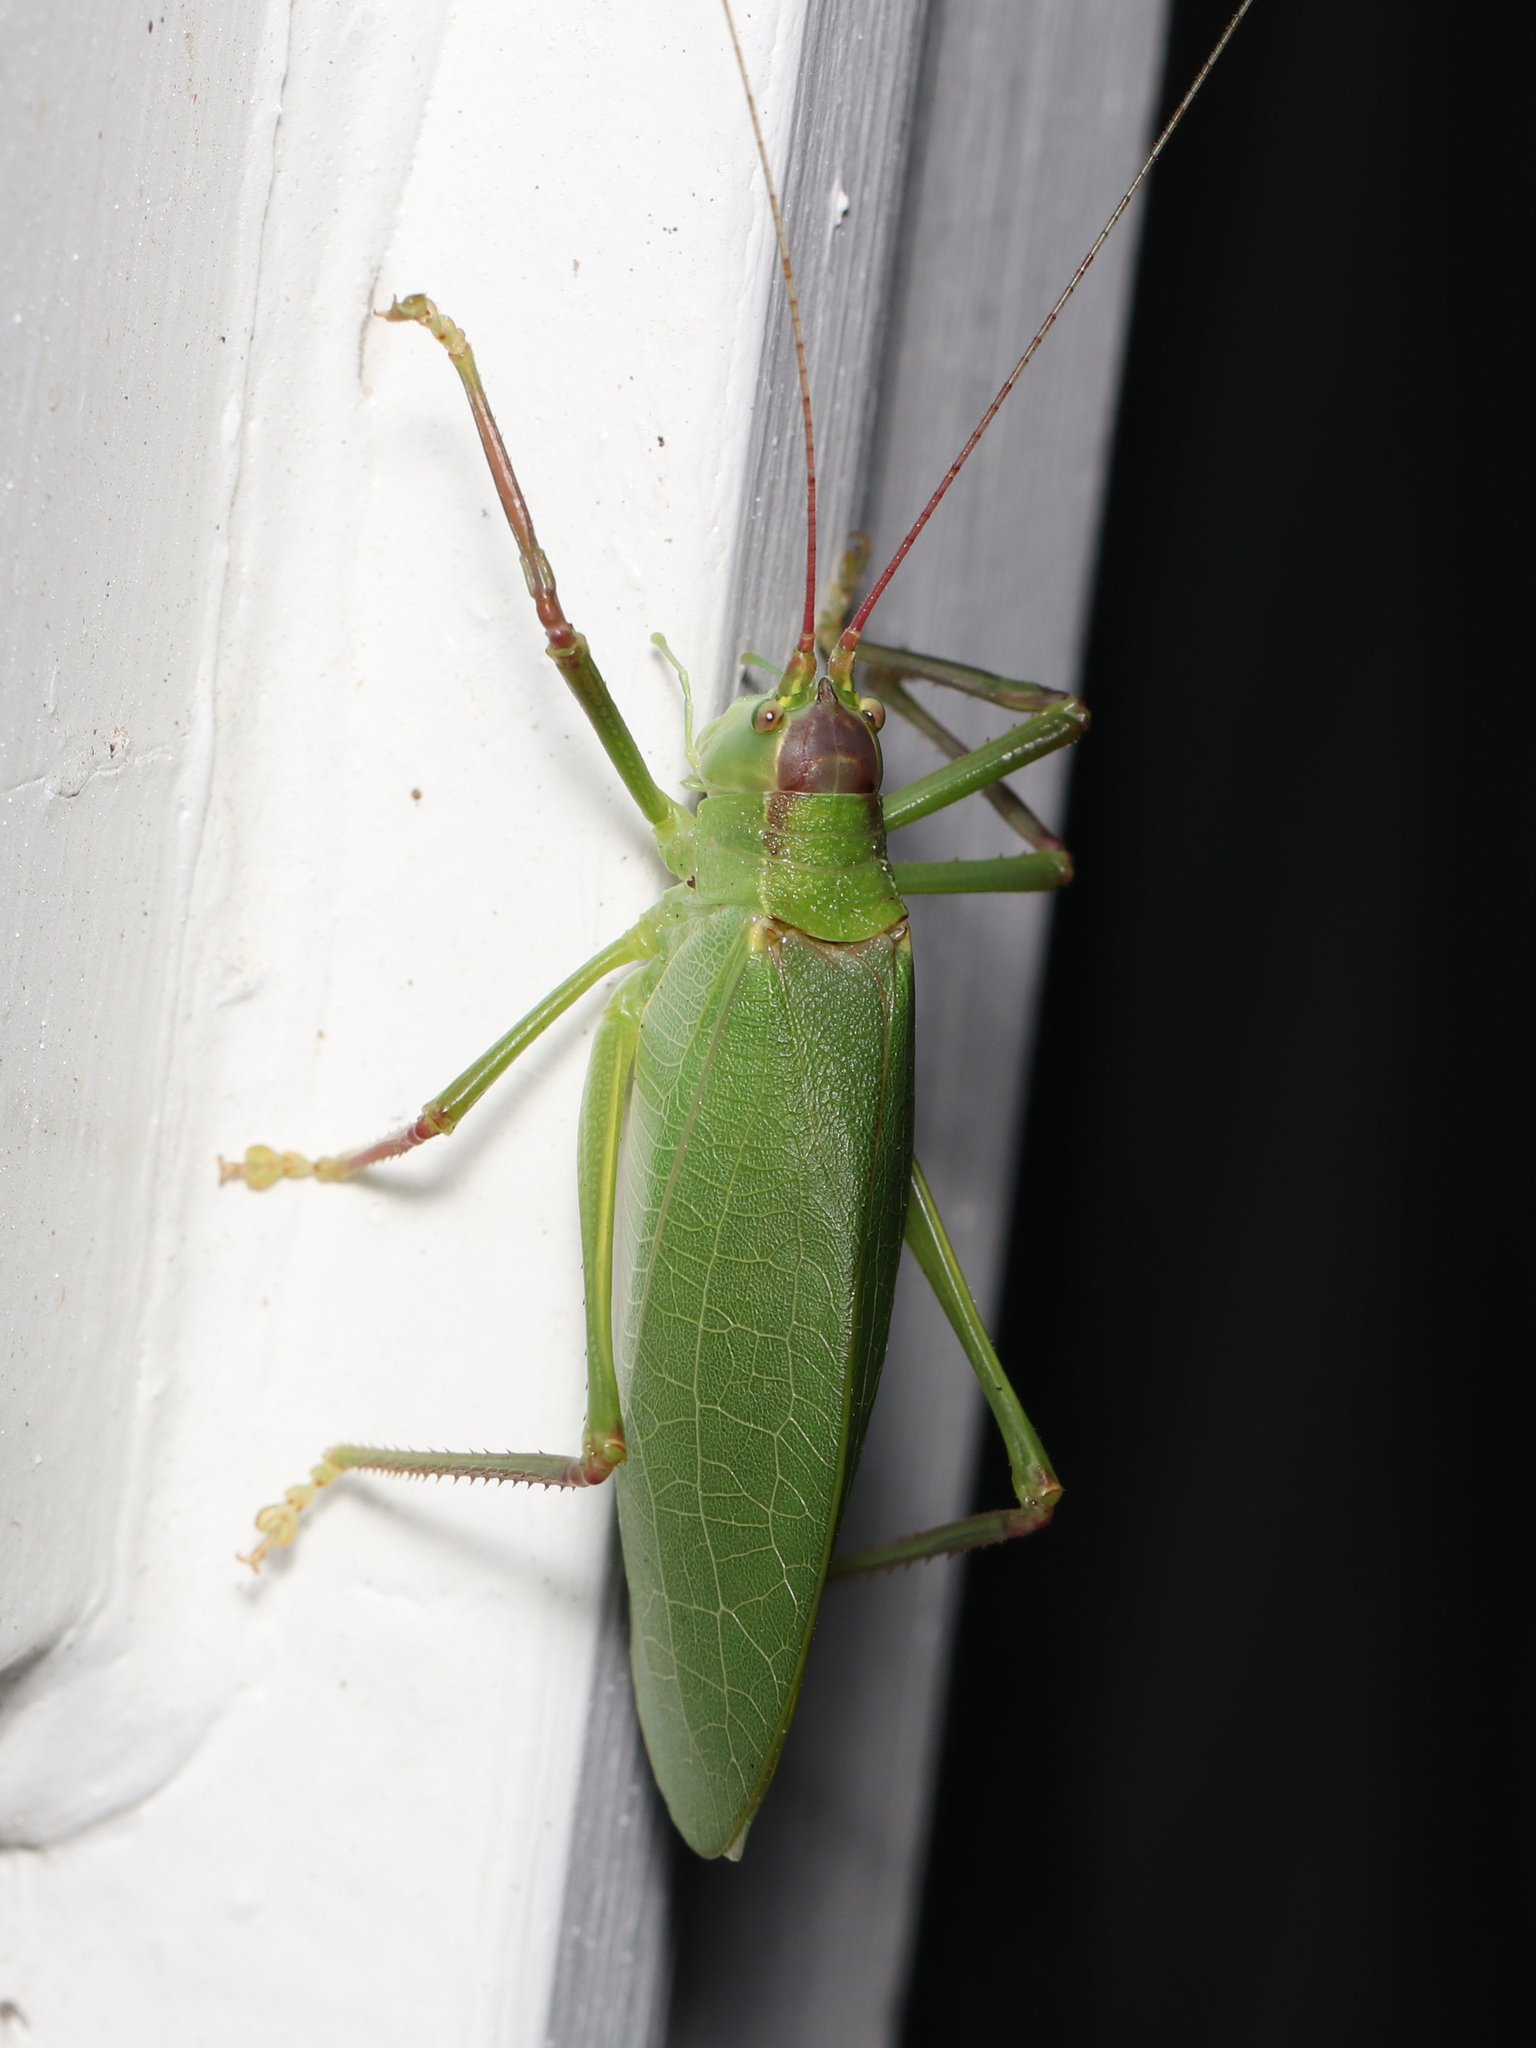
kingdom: Animalia
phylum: Arthropoda
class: Insecta
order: Orthoptera
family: Tettigoniidae
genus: Pterophylla
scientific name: Pterophylla camellifolia
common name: Common true katydid
